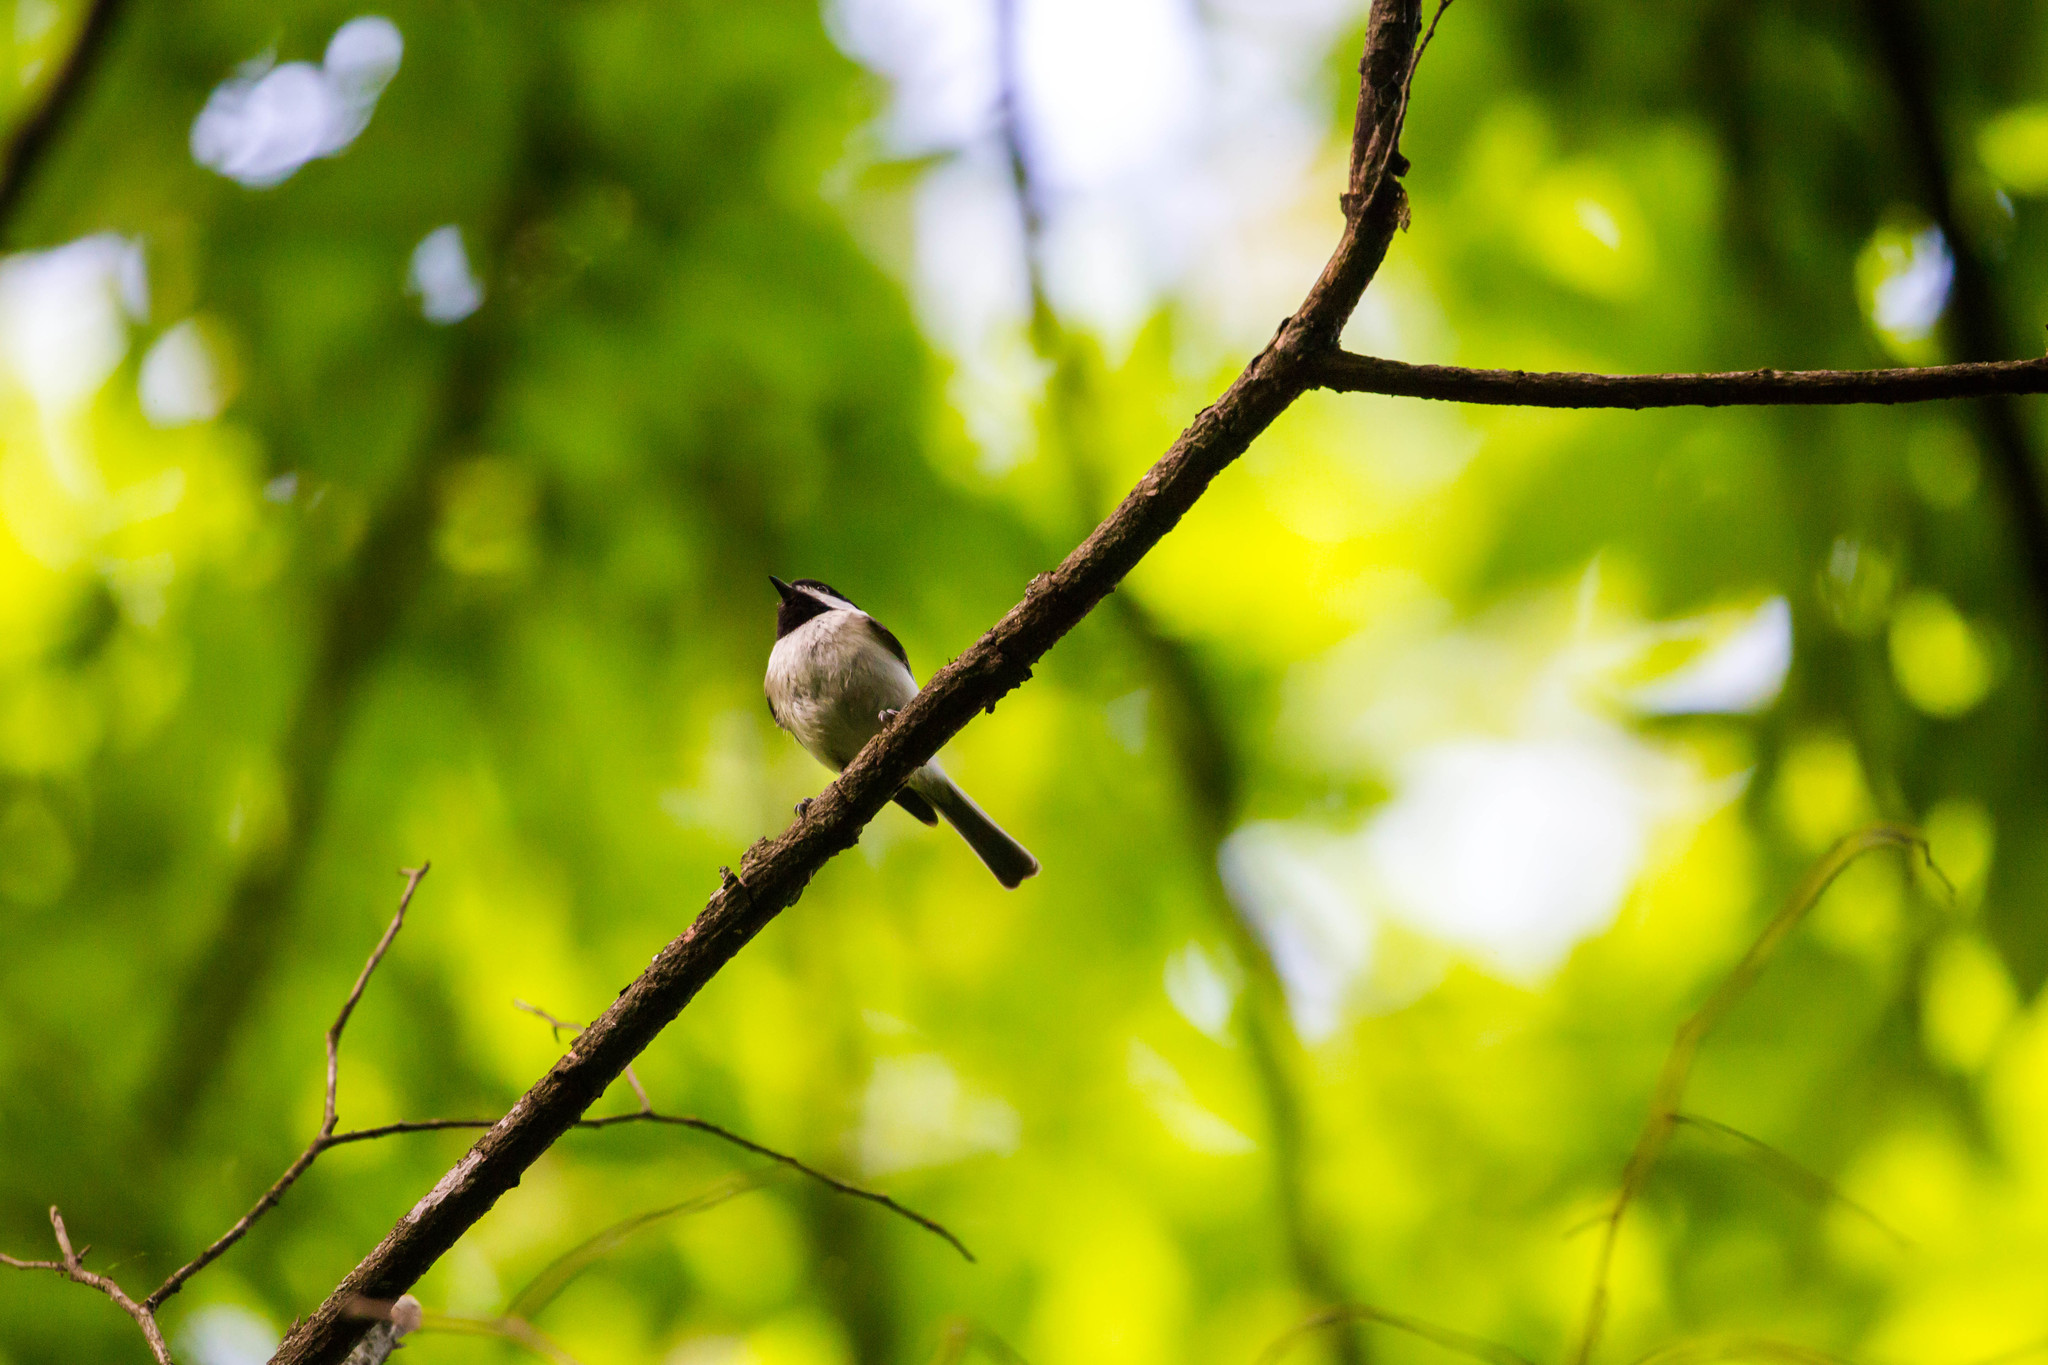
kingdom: Animalia
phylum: Chordata
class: Aves
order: Passeriformes
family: Paridae
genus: Poecile
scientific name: Poecile carolinensis
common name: Carolina chickadee
